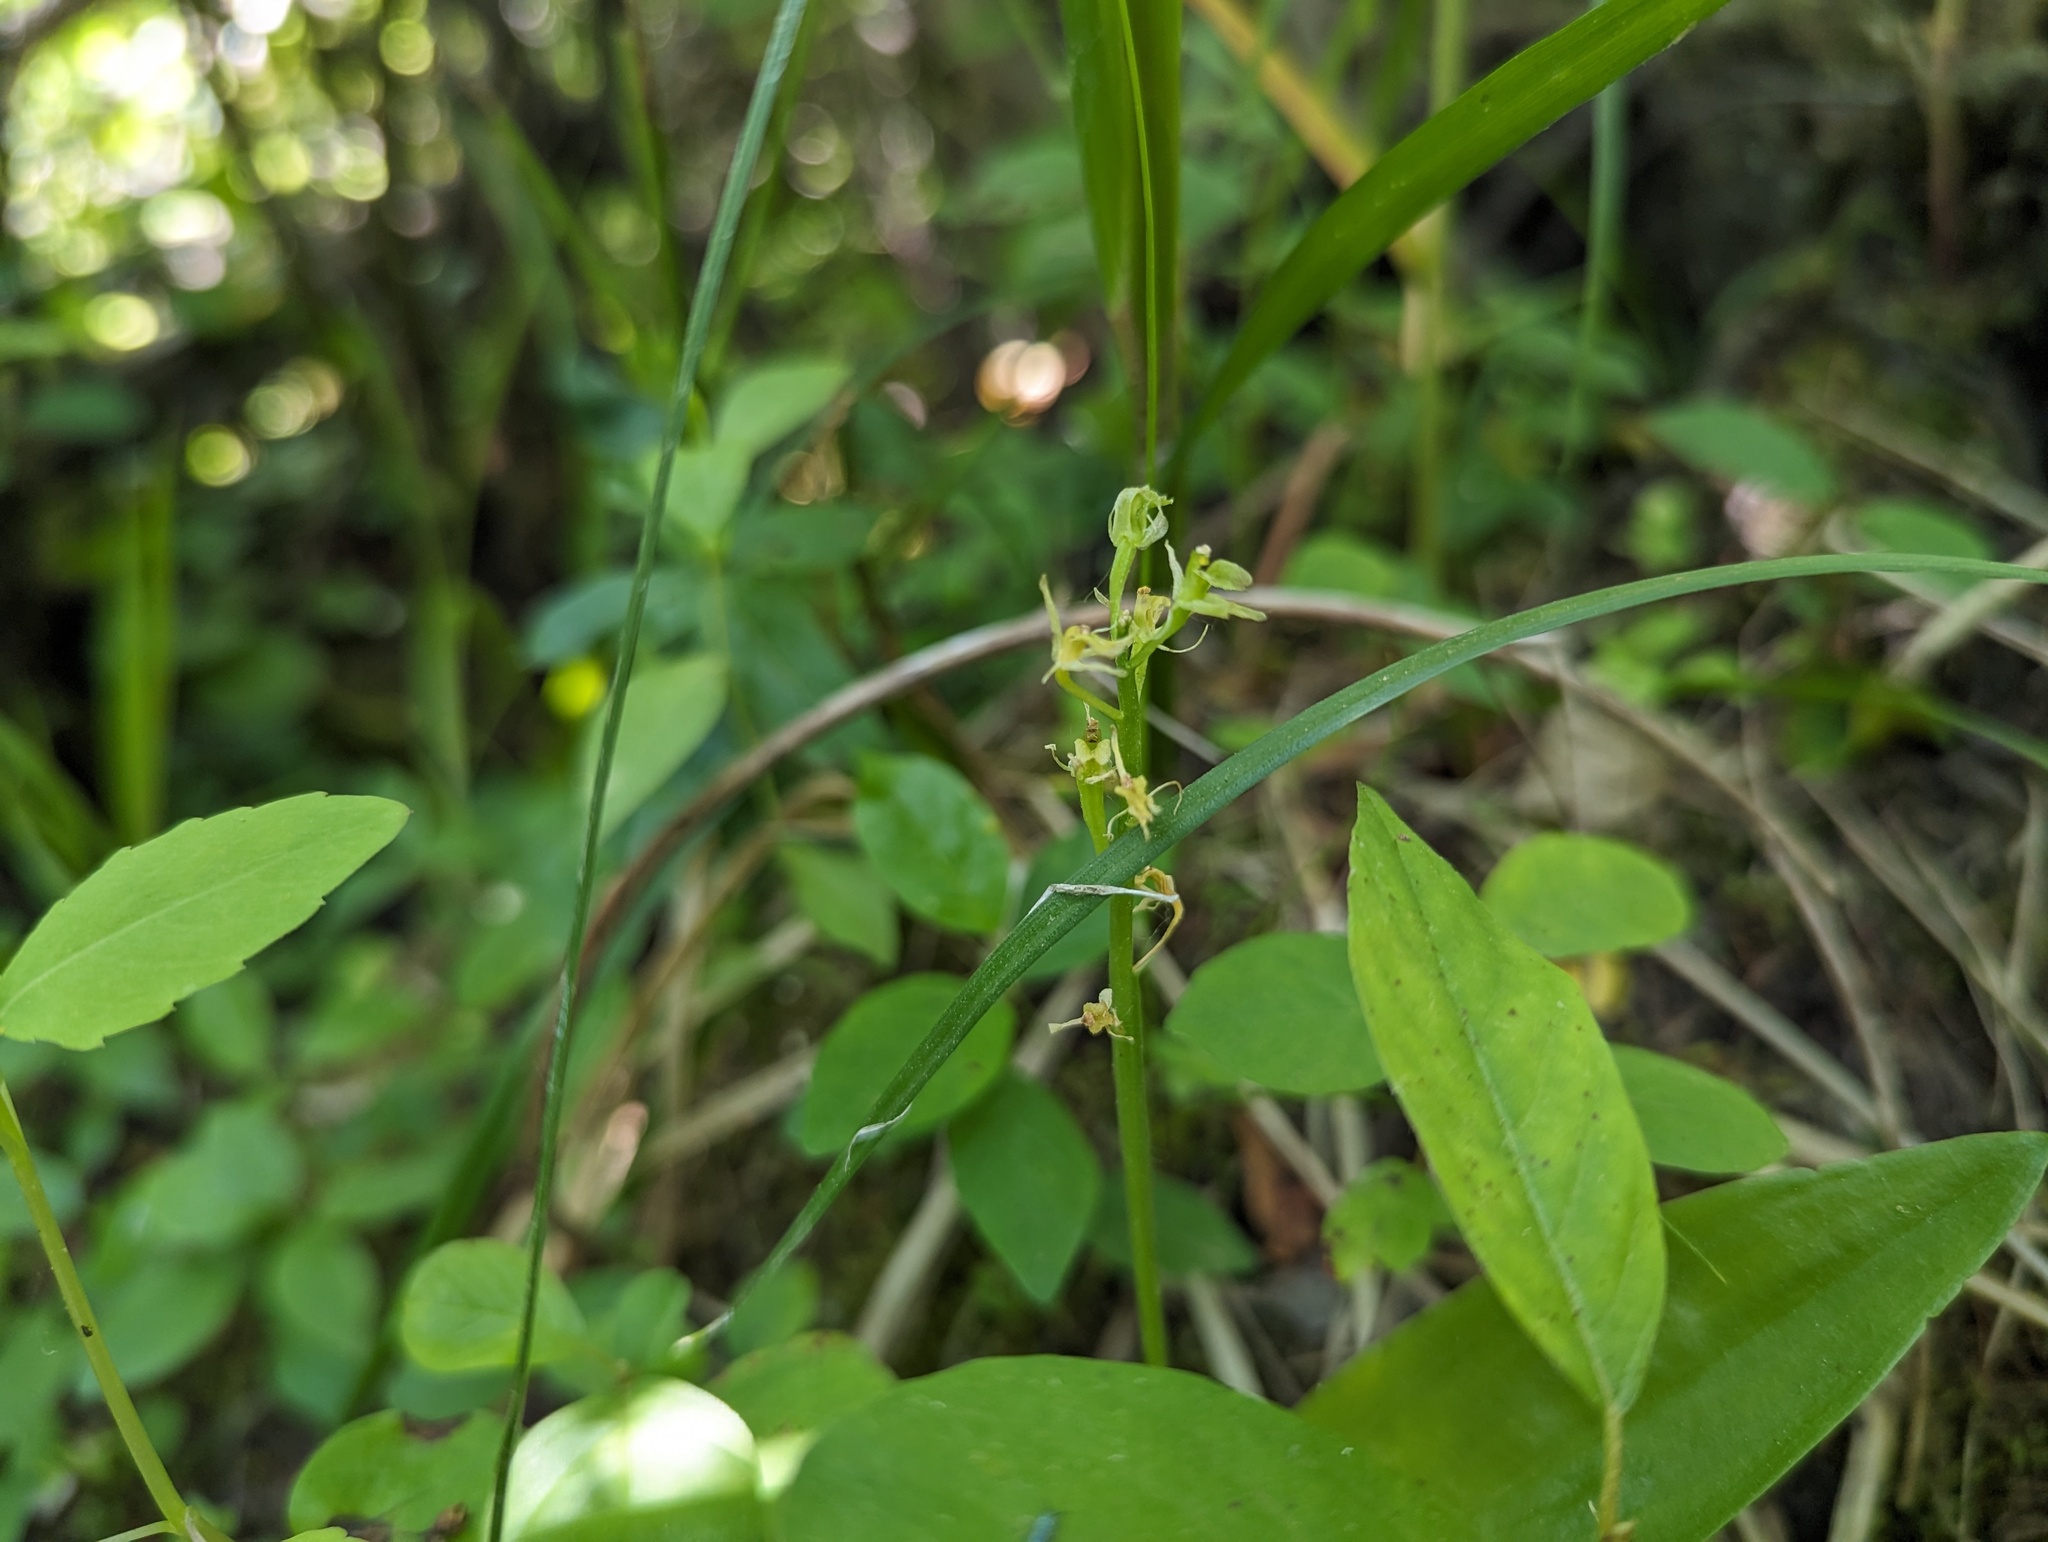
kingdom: Animalia
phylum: Arthropoda
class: Insecta
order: Coleoptera
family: Curculionidae
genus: Liparis
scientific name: Liparis loeselii
